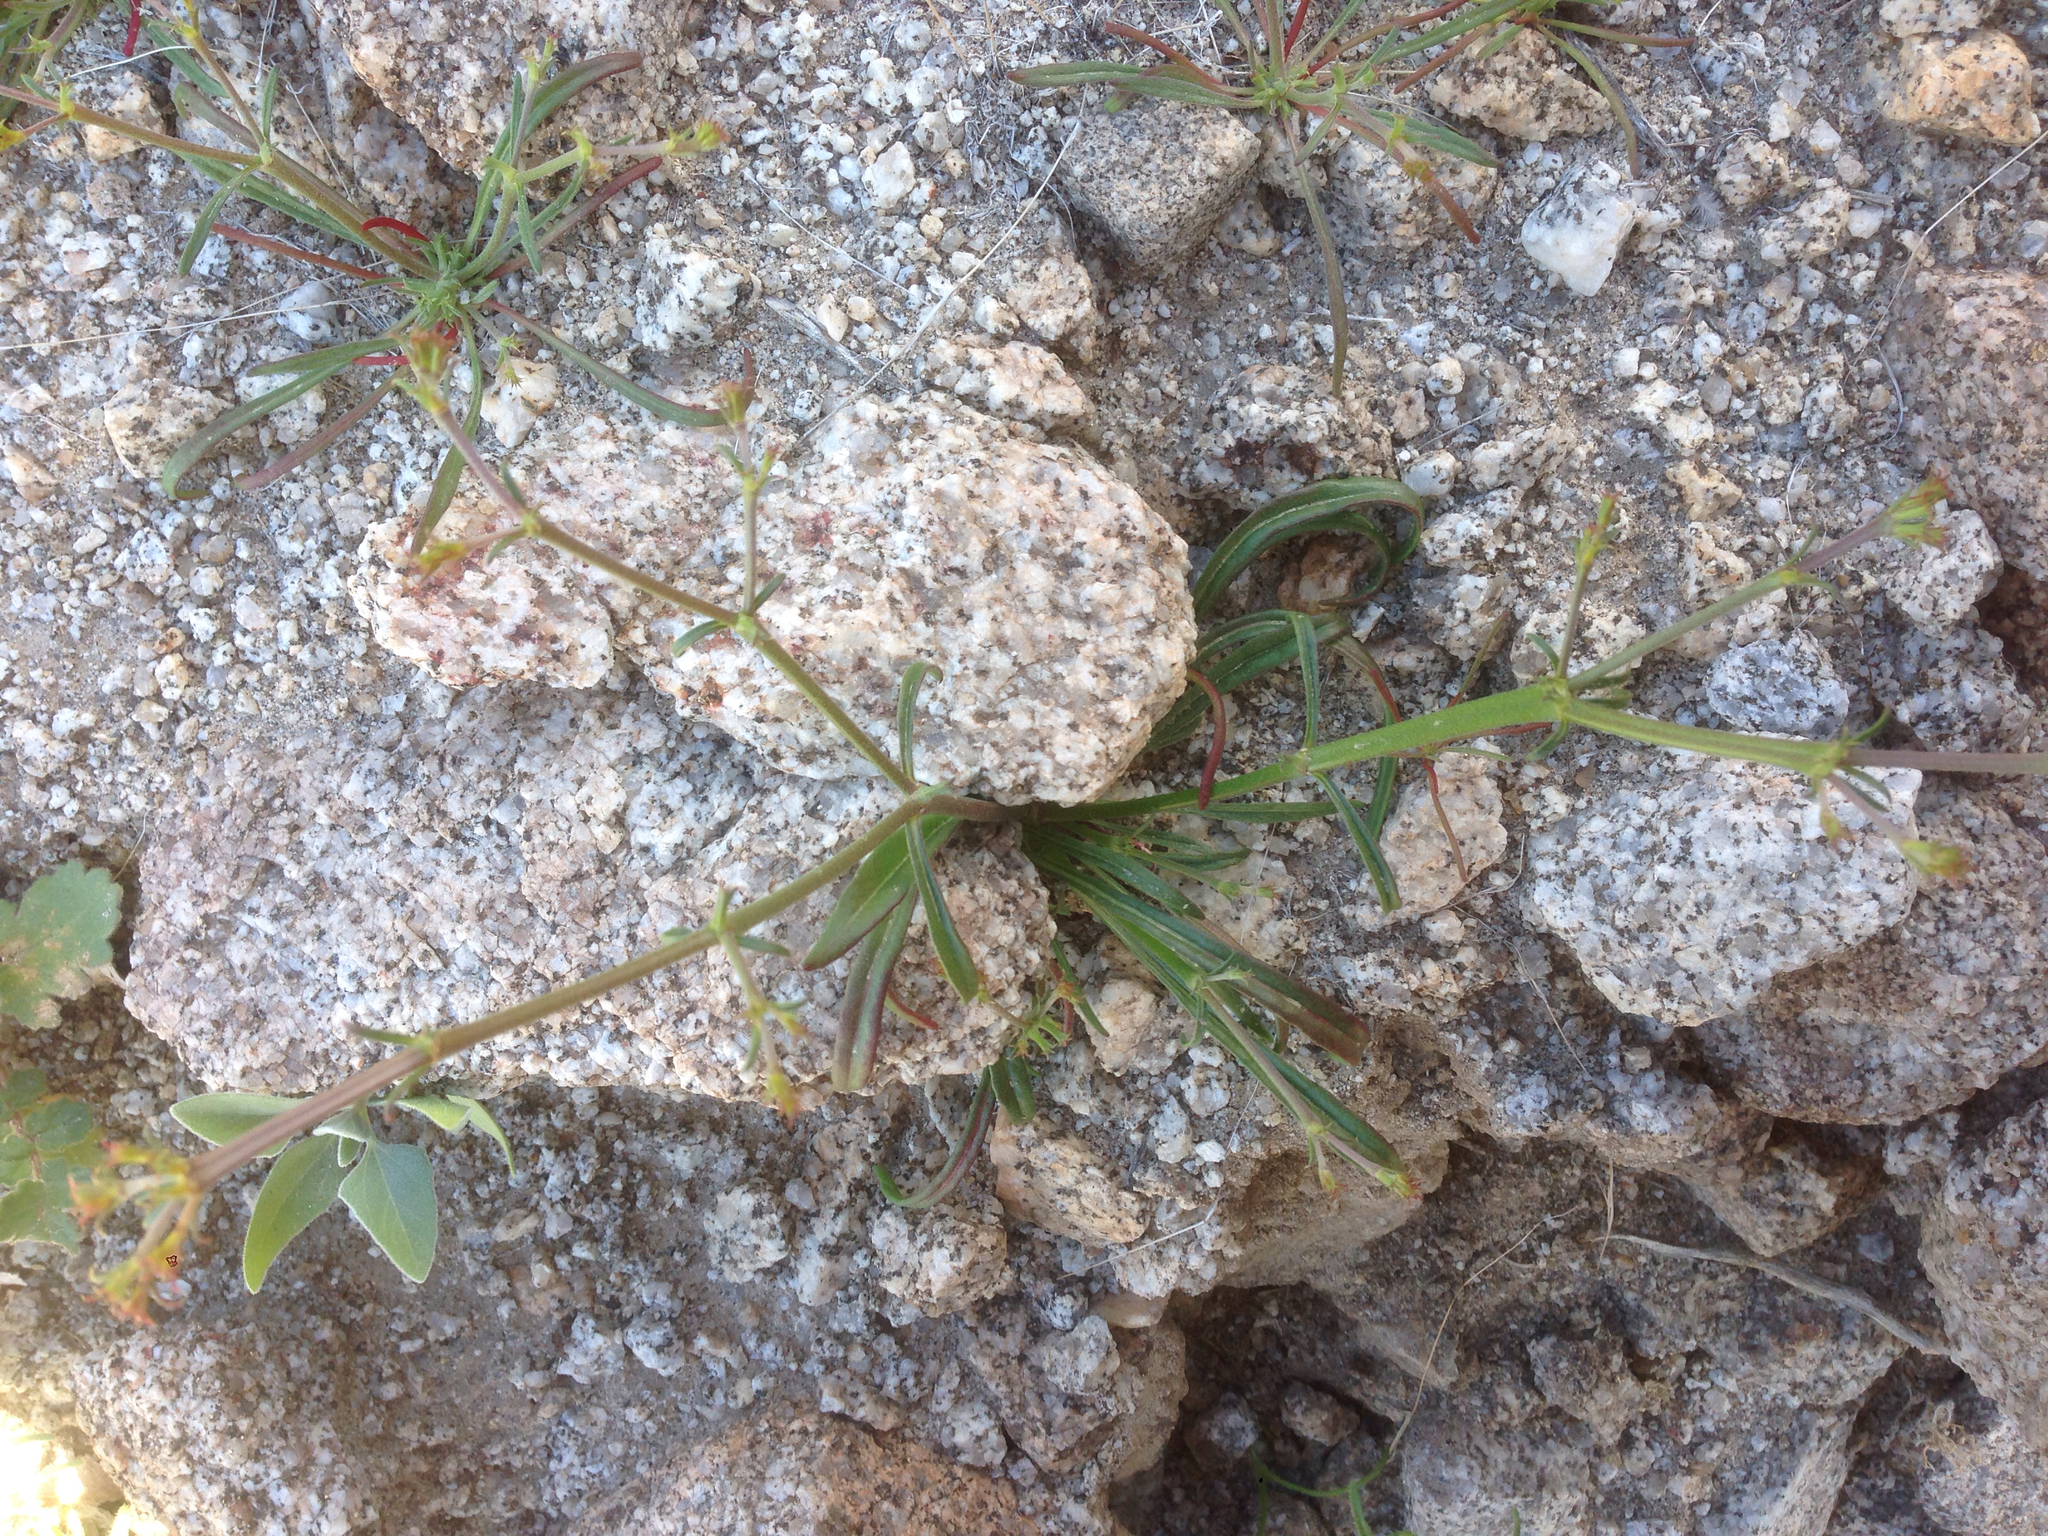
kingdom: Plantae
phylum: Tracheophyta
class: Magnoliopsida
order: Caryophyllales
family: Polygonaceae
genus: Chorizanthe
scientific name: Chorizanthe brevicornu
